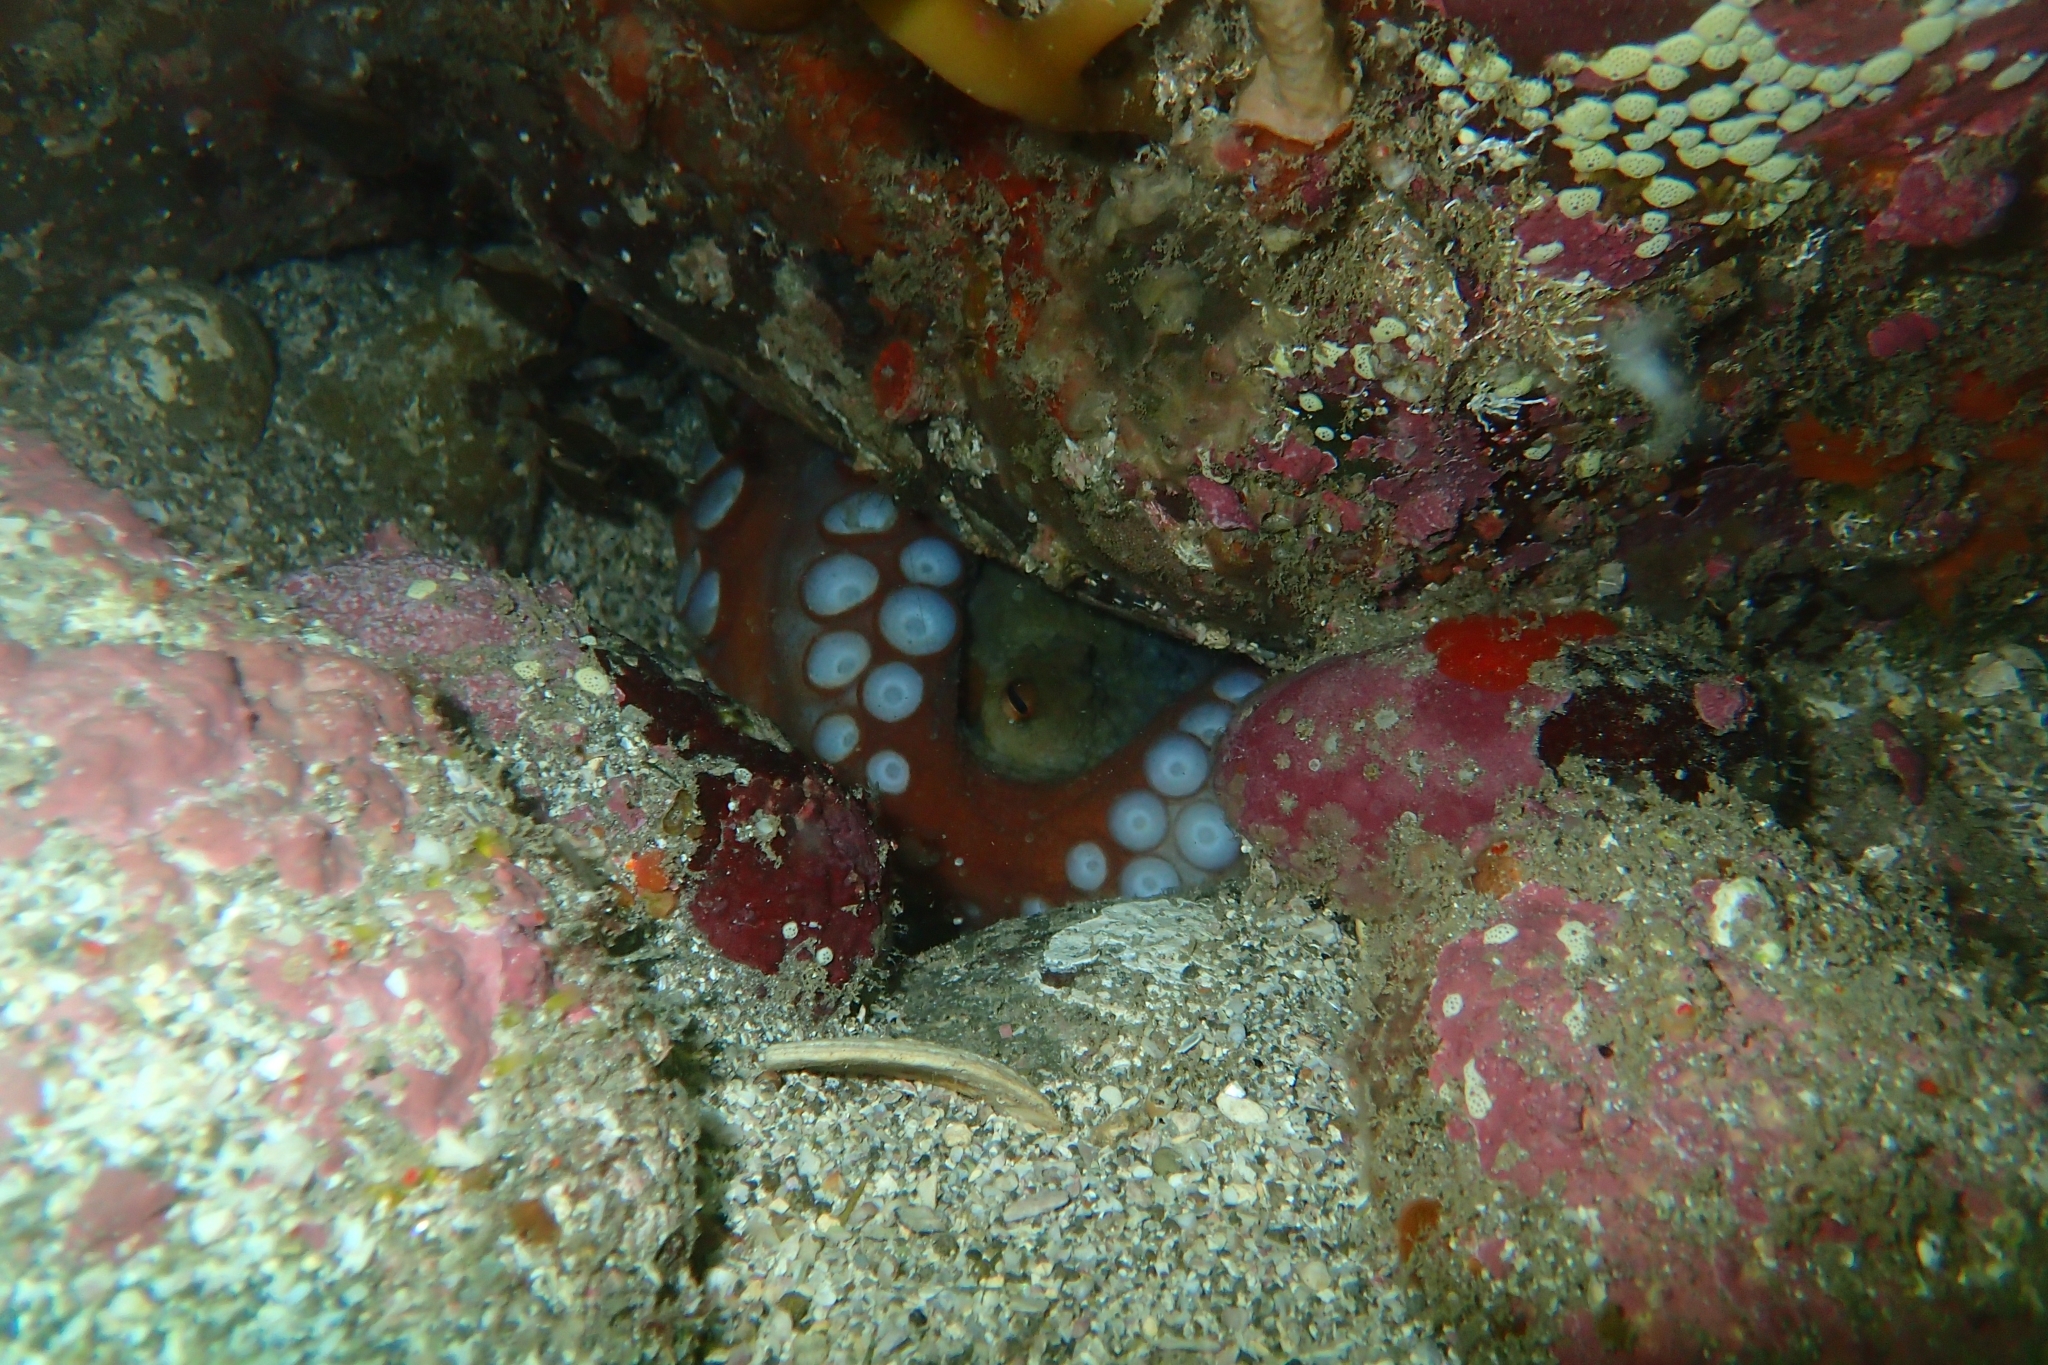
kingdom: Animalia
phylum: Mollusca
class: Cephalopoda
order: Octopoda
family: Octopodidae
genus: Octopus
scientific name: Octopus tetricus
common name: Sydney octopus
